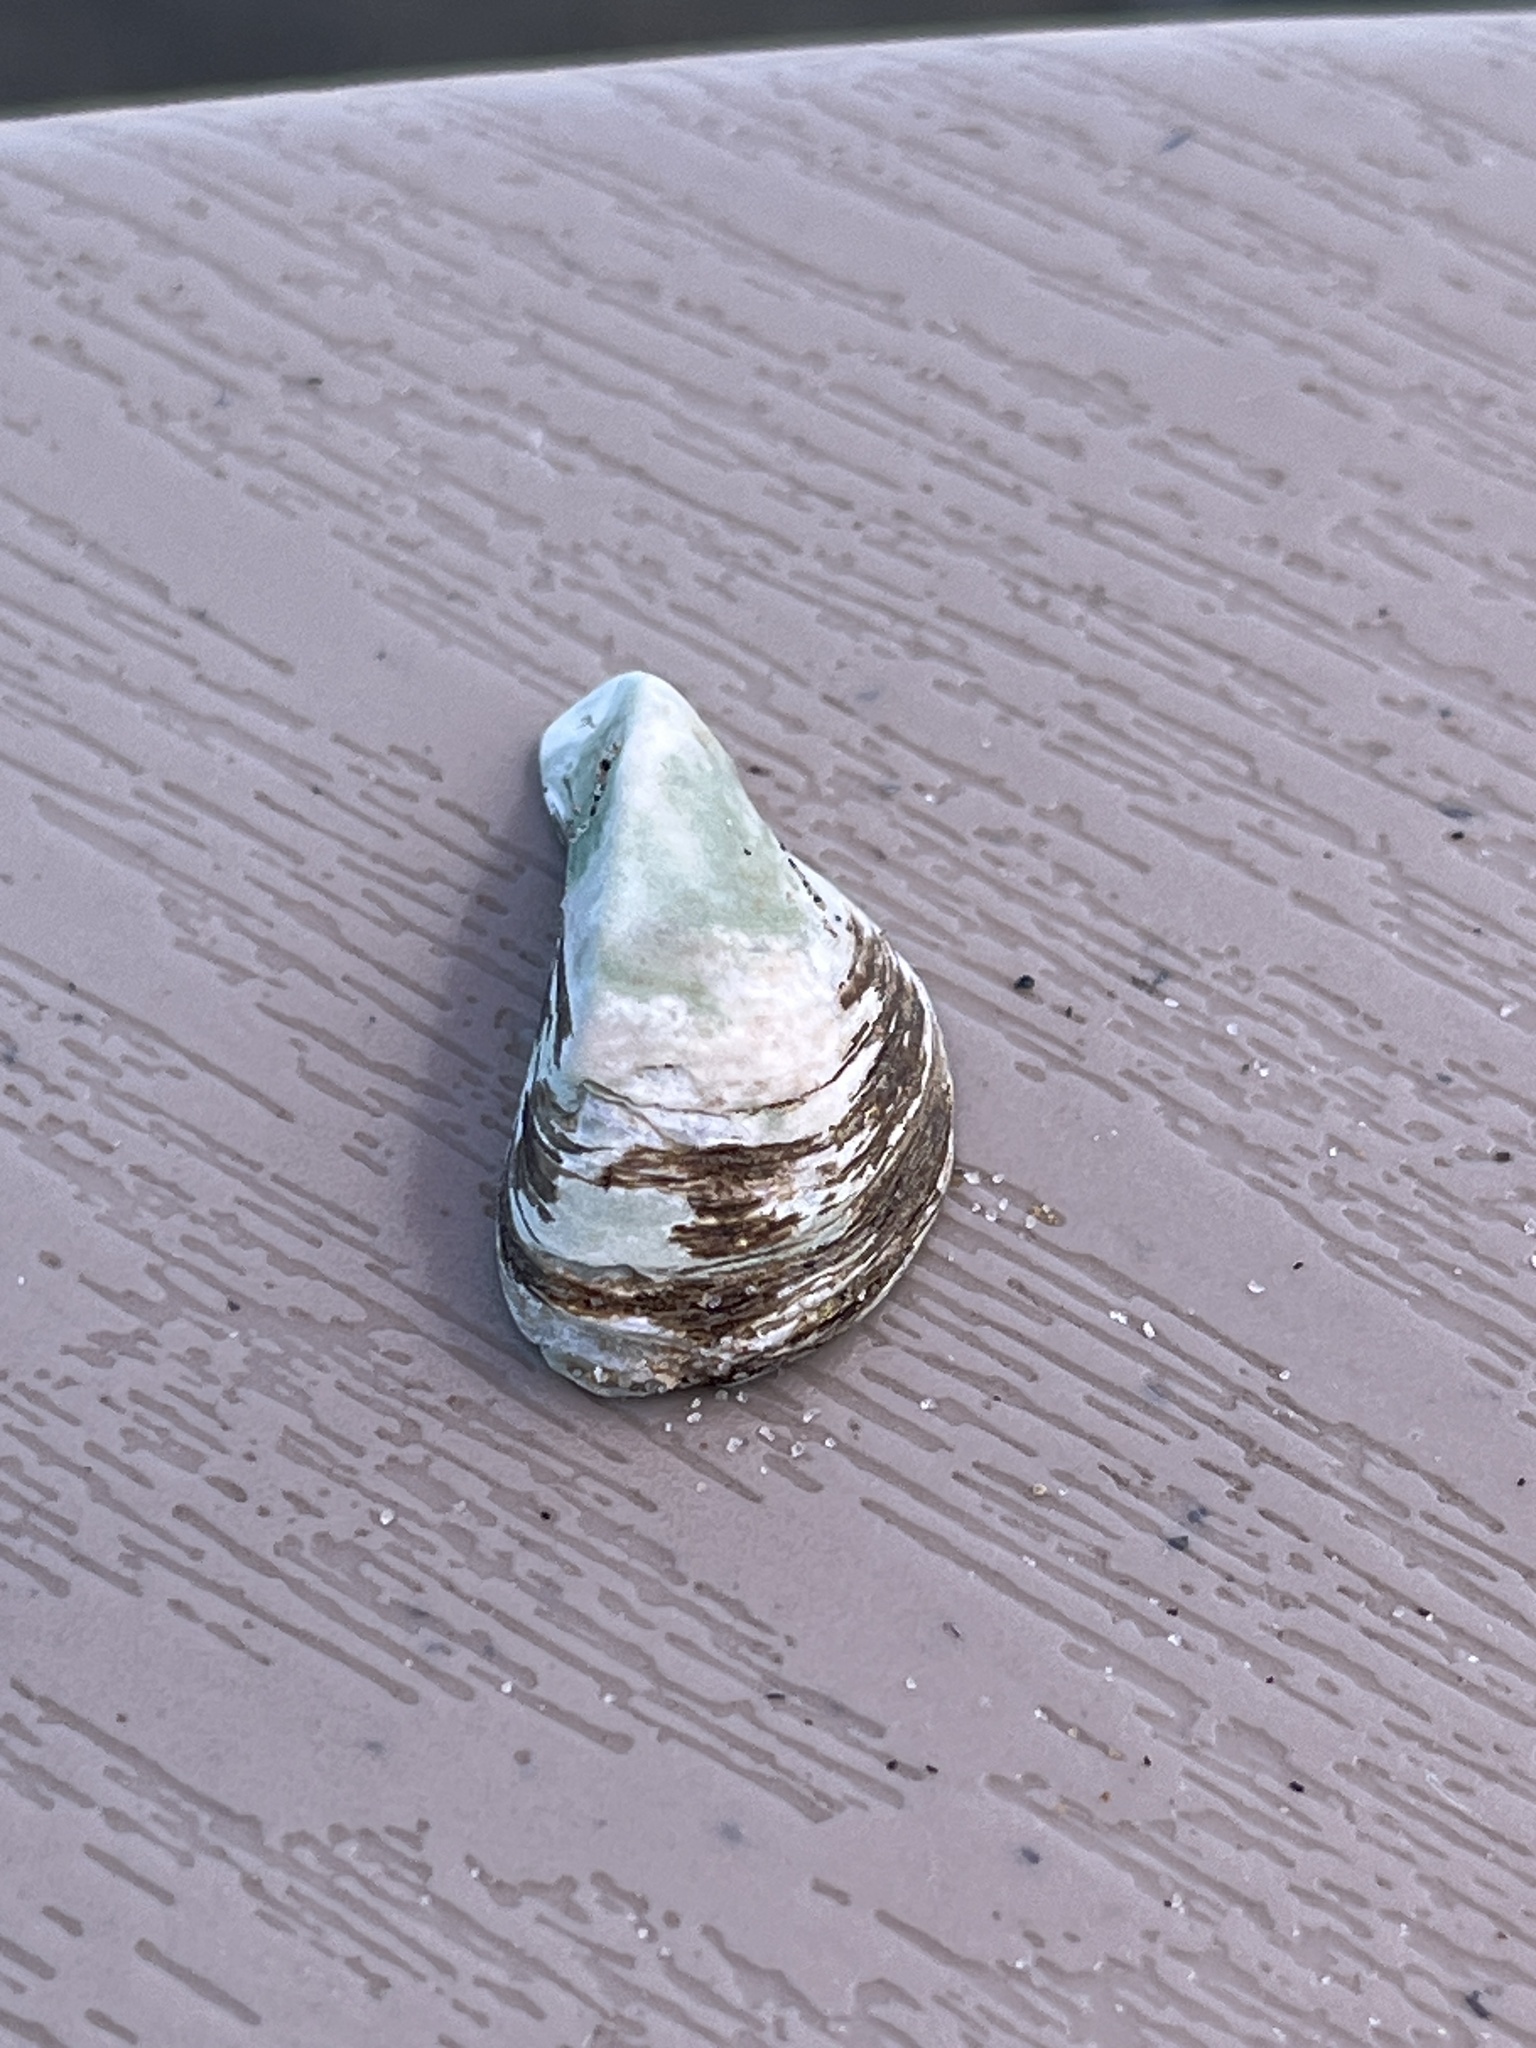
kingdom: Animalia
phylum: Mollusca
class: Bivalvia
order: Myida
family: Dreissenidae
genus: Dreissena
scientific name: Dreissena polymorpha
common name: Zebra mussel
